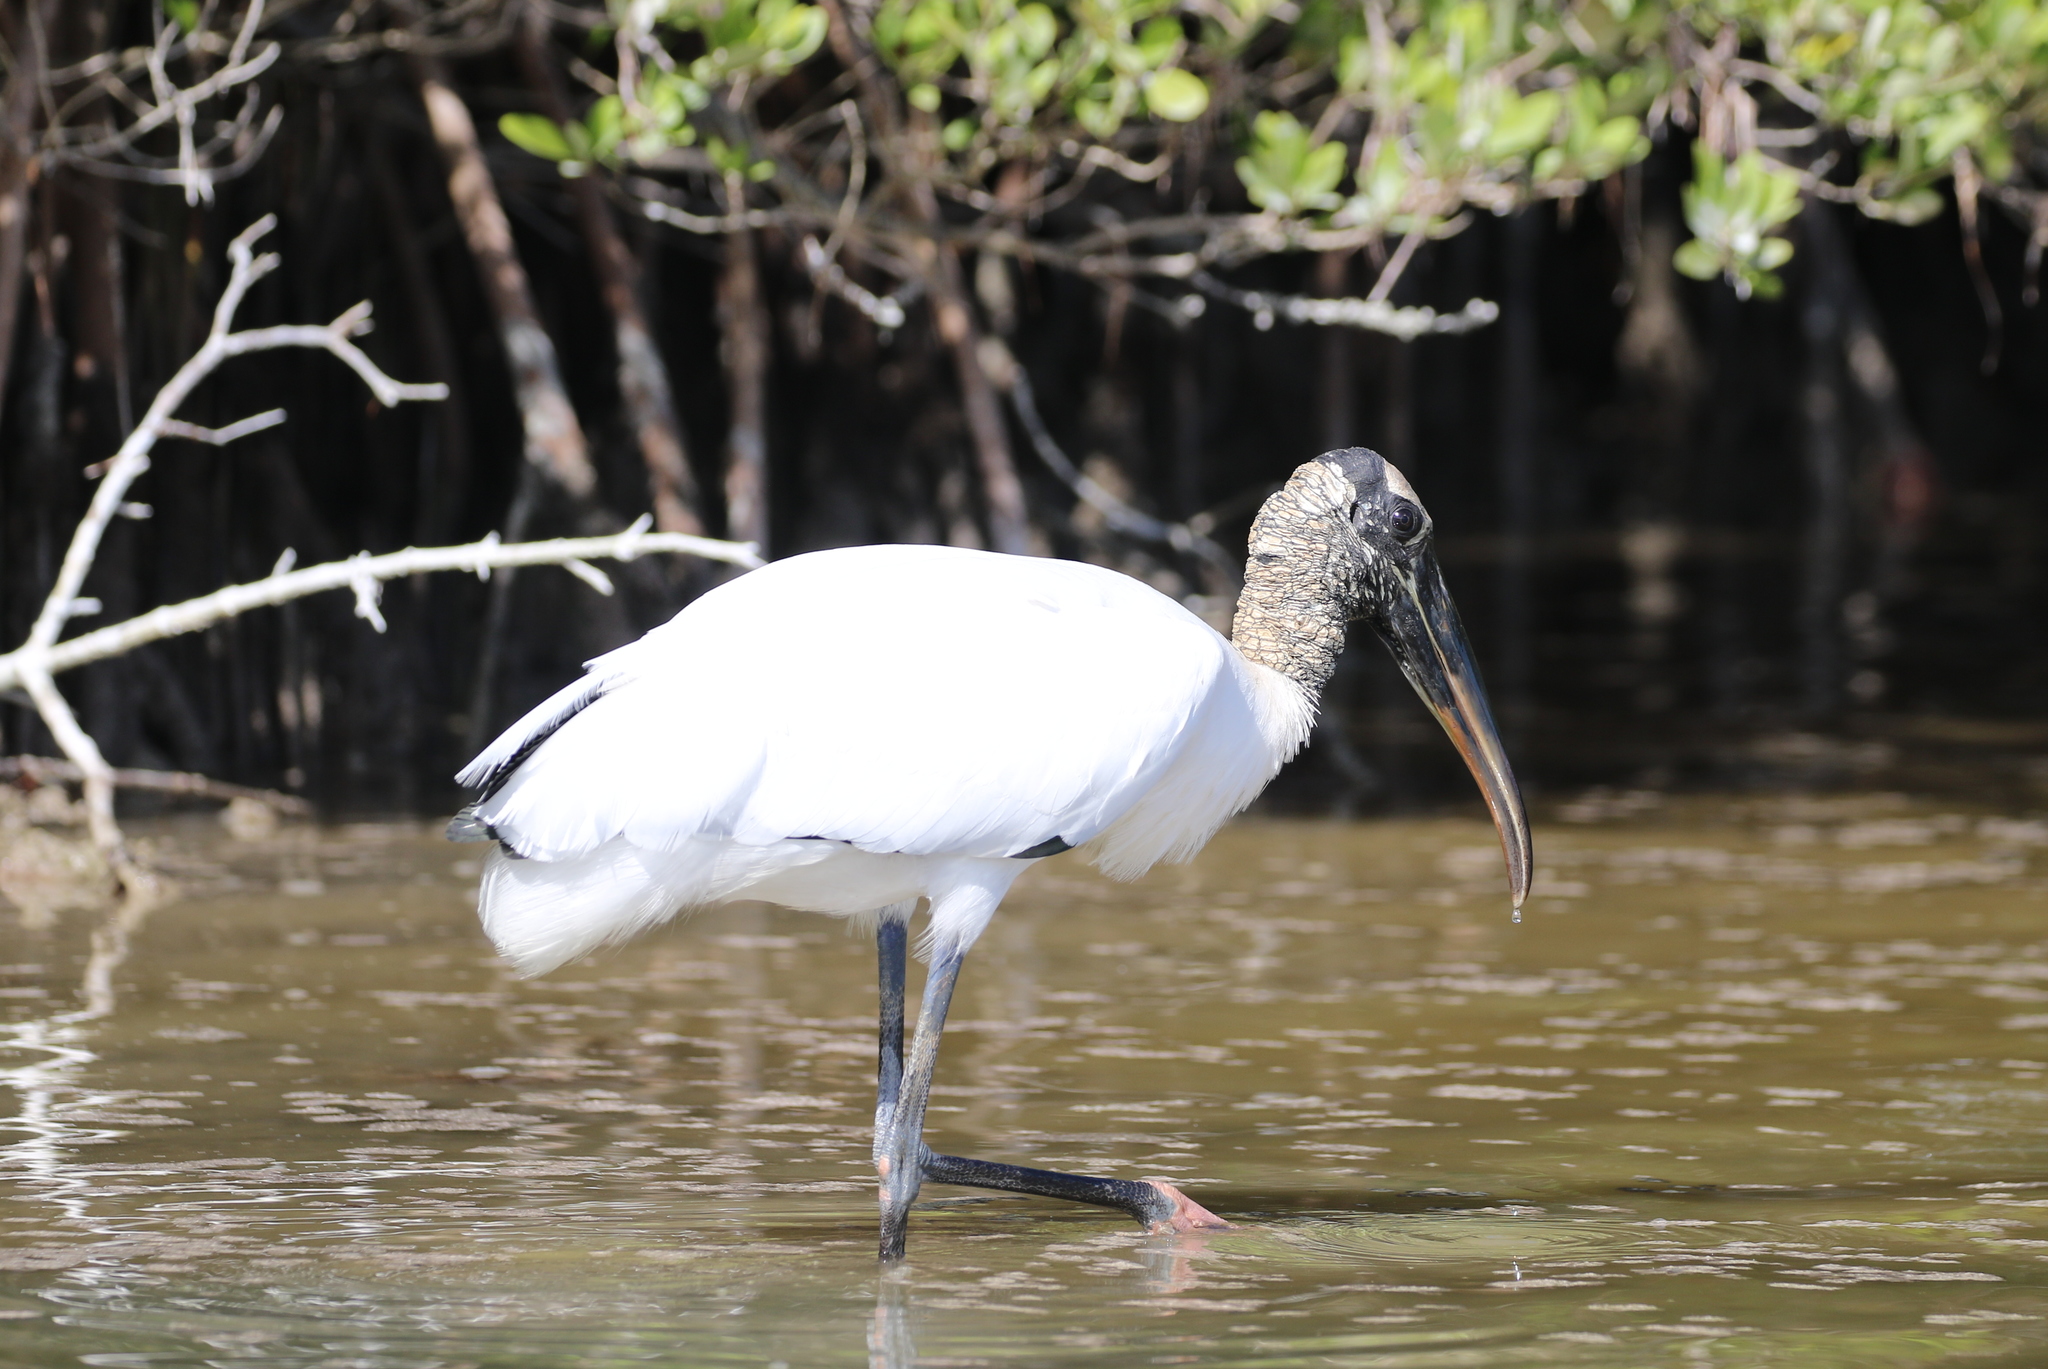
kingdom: Animalia
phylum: Chordata
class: Aves
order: Ciconiiformes
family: Ciconiidae
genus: Mycteria
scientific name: Mycteria americana
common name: Wood stork
